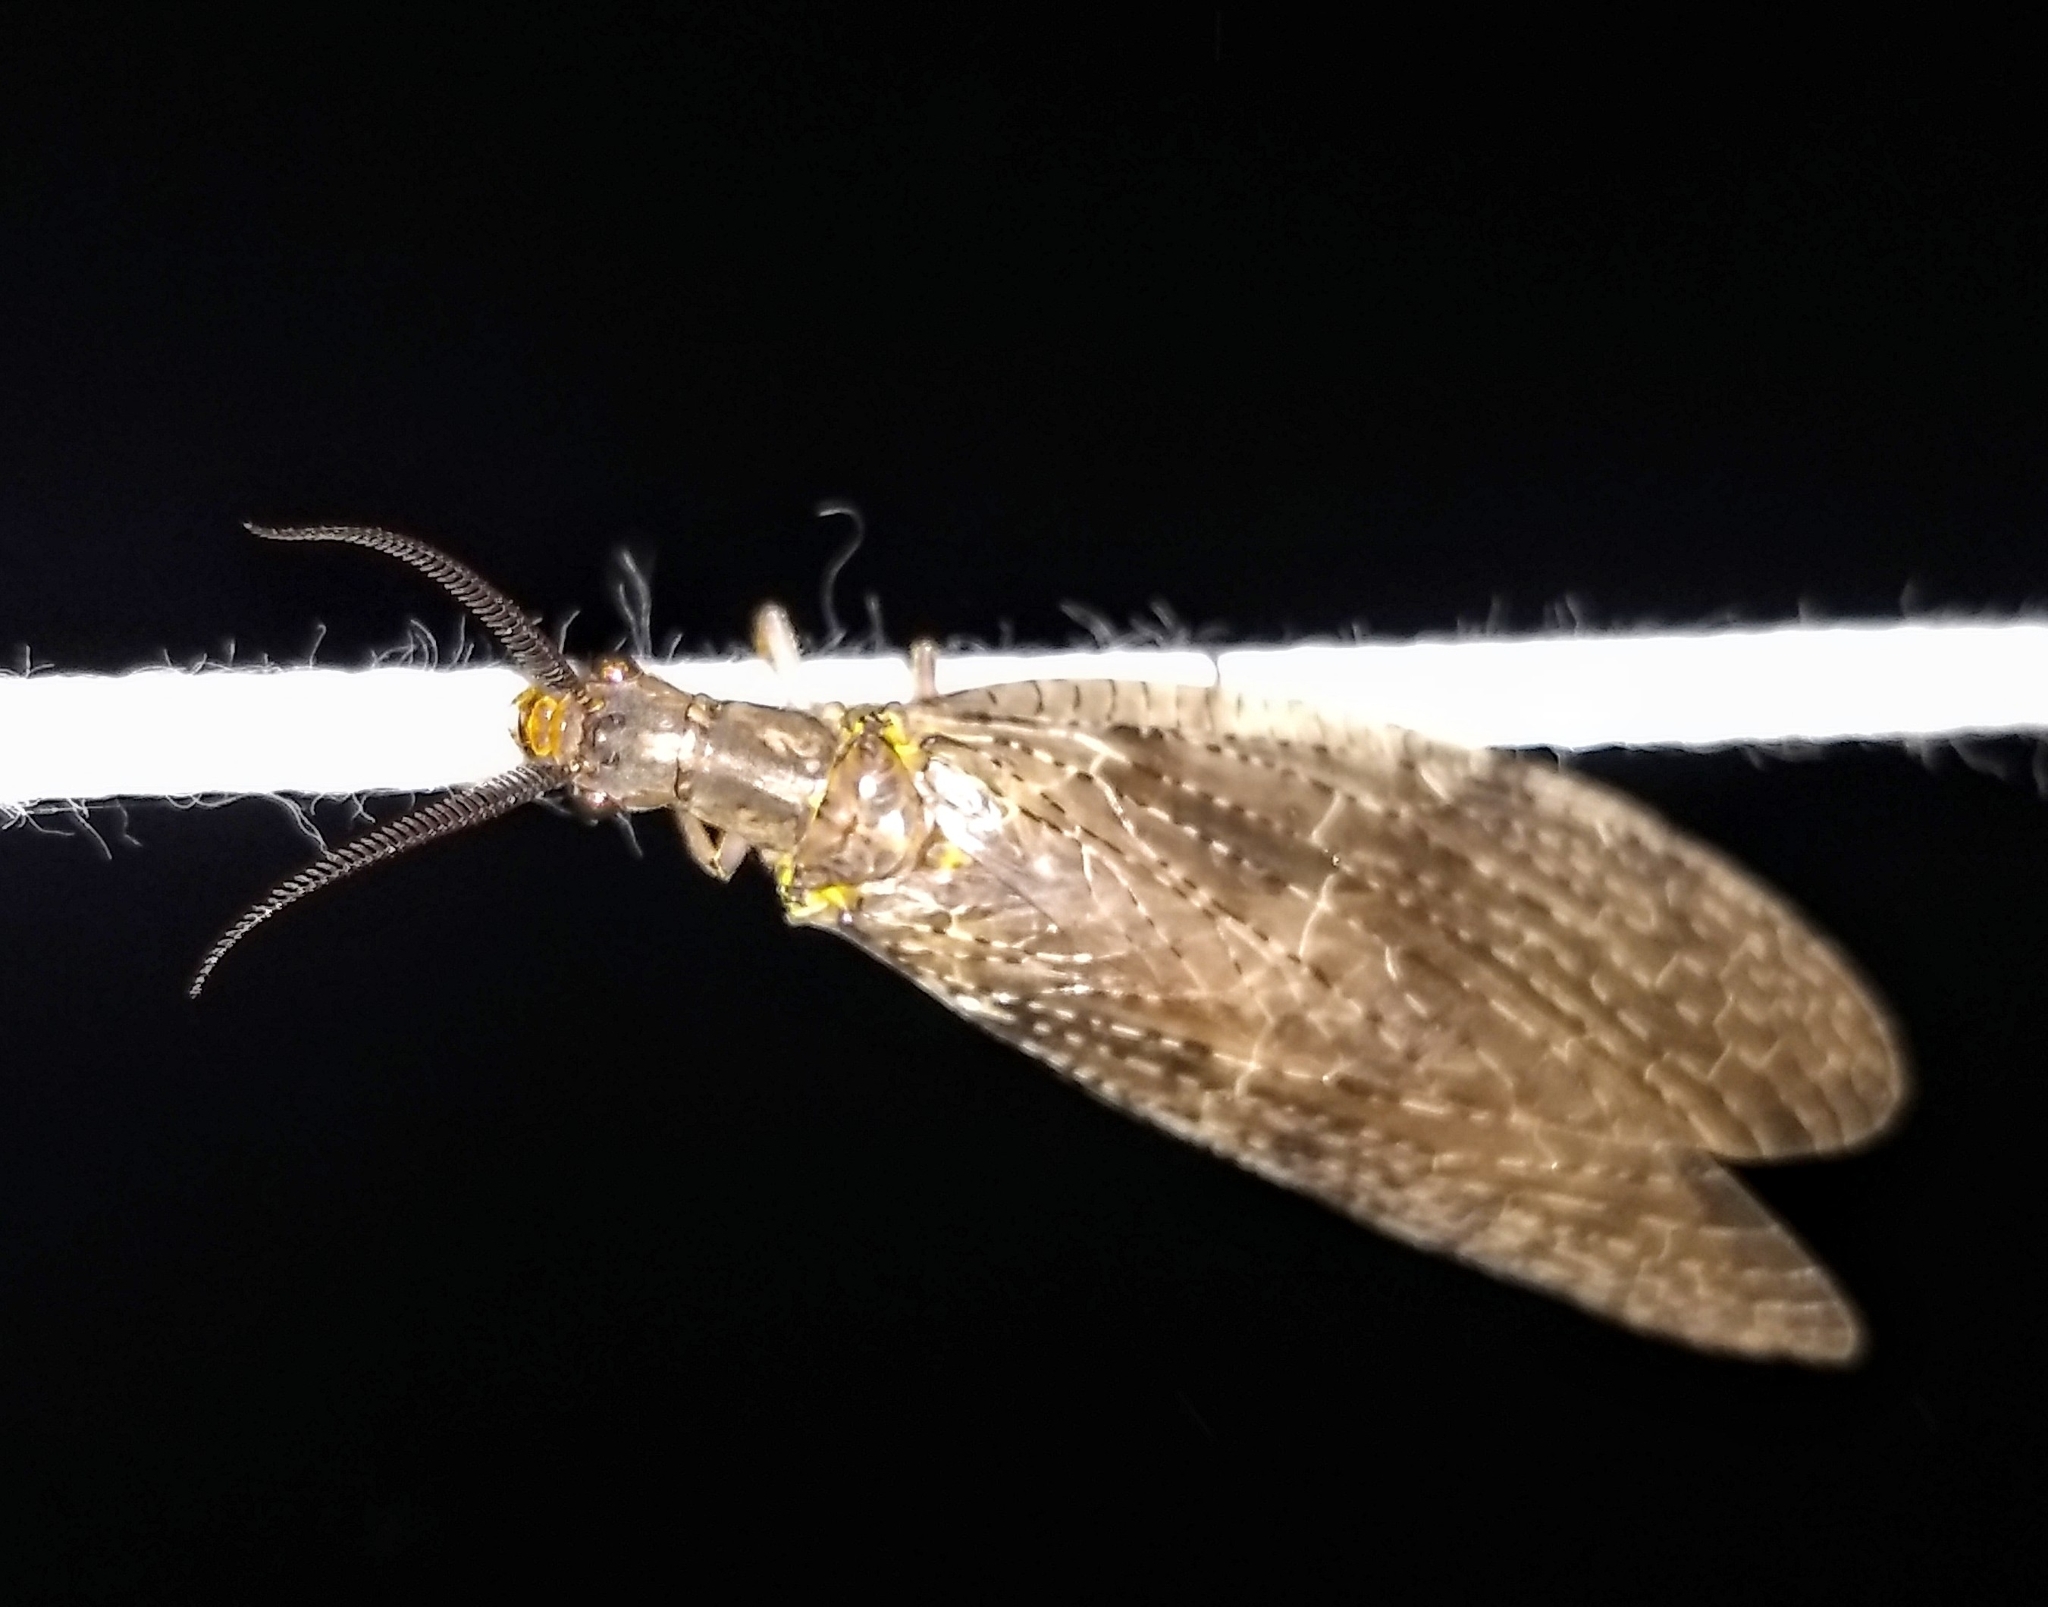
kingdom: Animalia
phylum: Arthropoda
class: Insecta
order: Megaloptera
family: Corydalidae
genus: Chauliodes
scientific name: Chauliodes pectinicornis
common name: Summer fishfly
